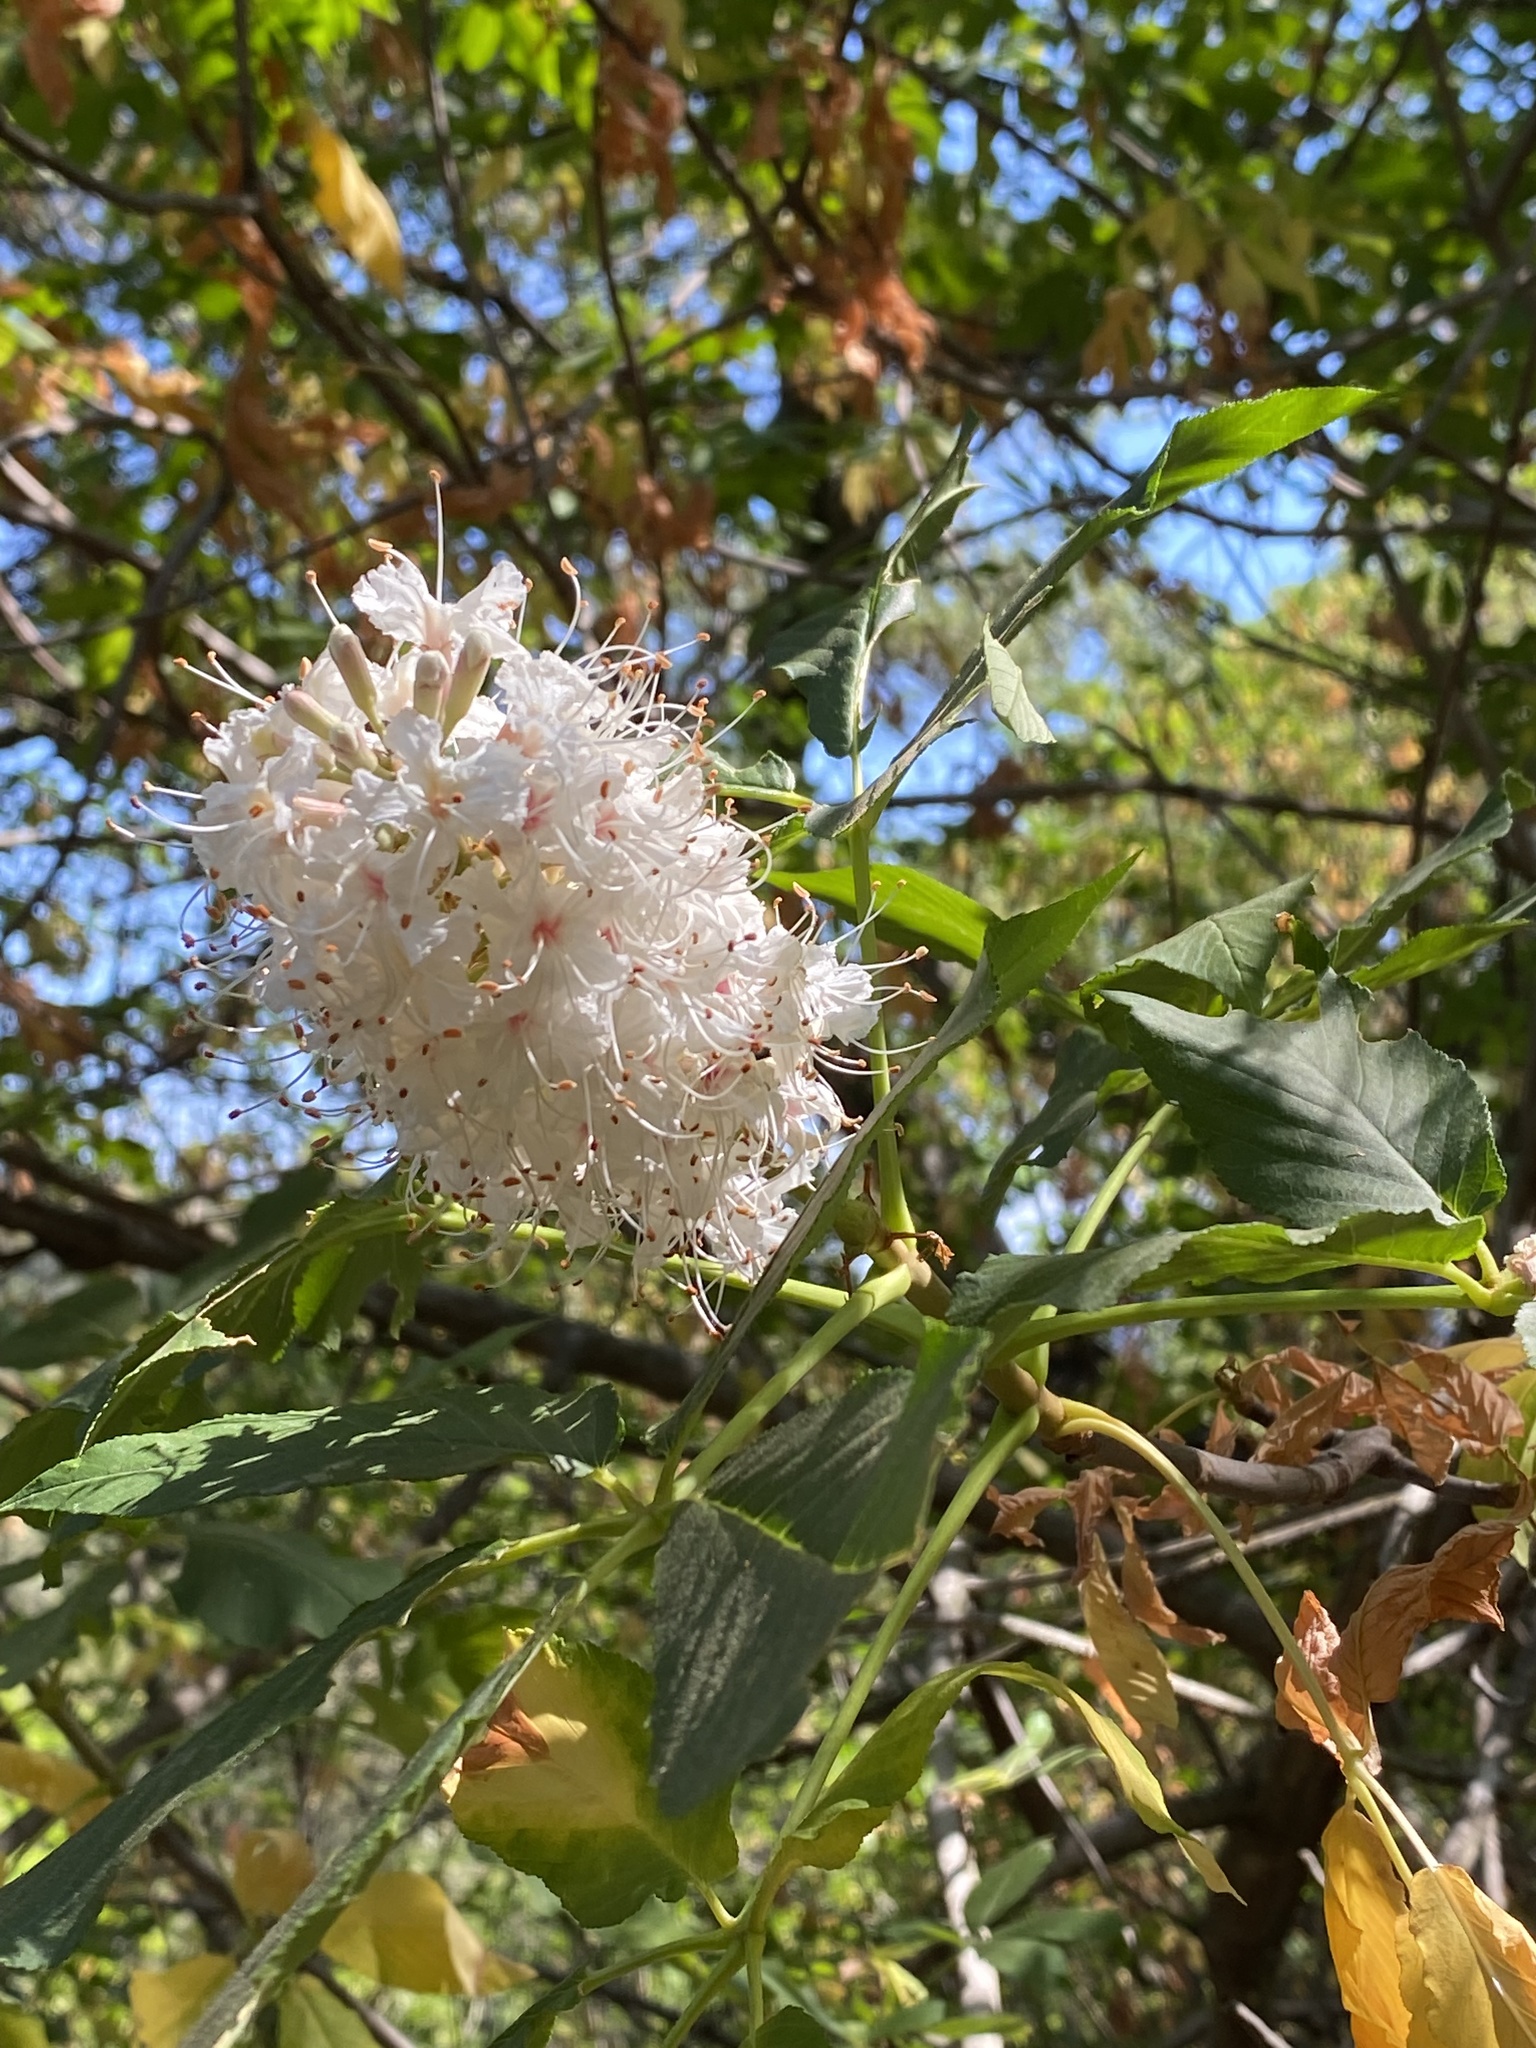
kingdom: Plantae
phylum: Tracheophyta
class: Magnoliopsida
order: Sapindales
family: Sapindaceae
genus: Aesculus
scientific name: Aesculus californica
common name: California buckeye
